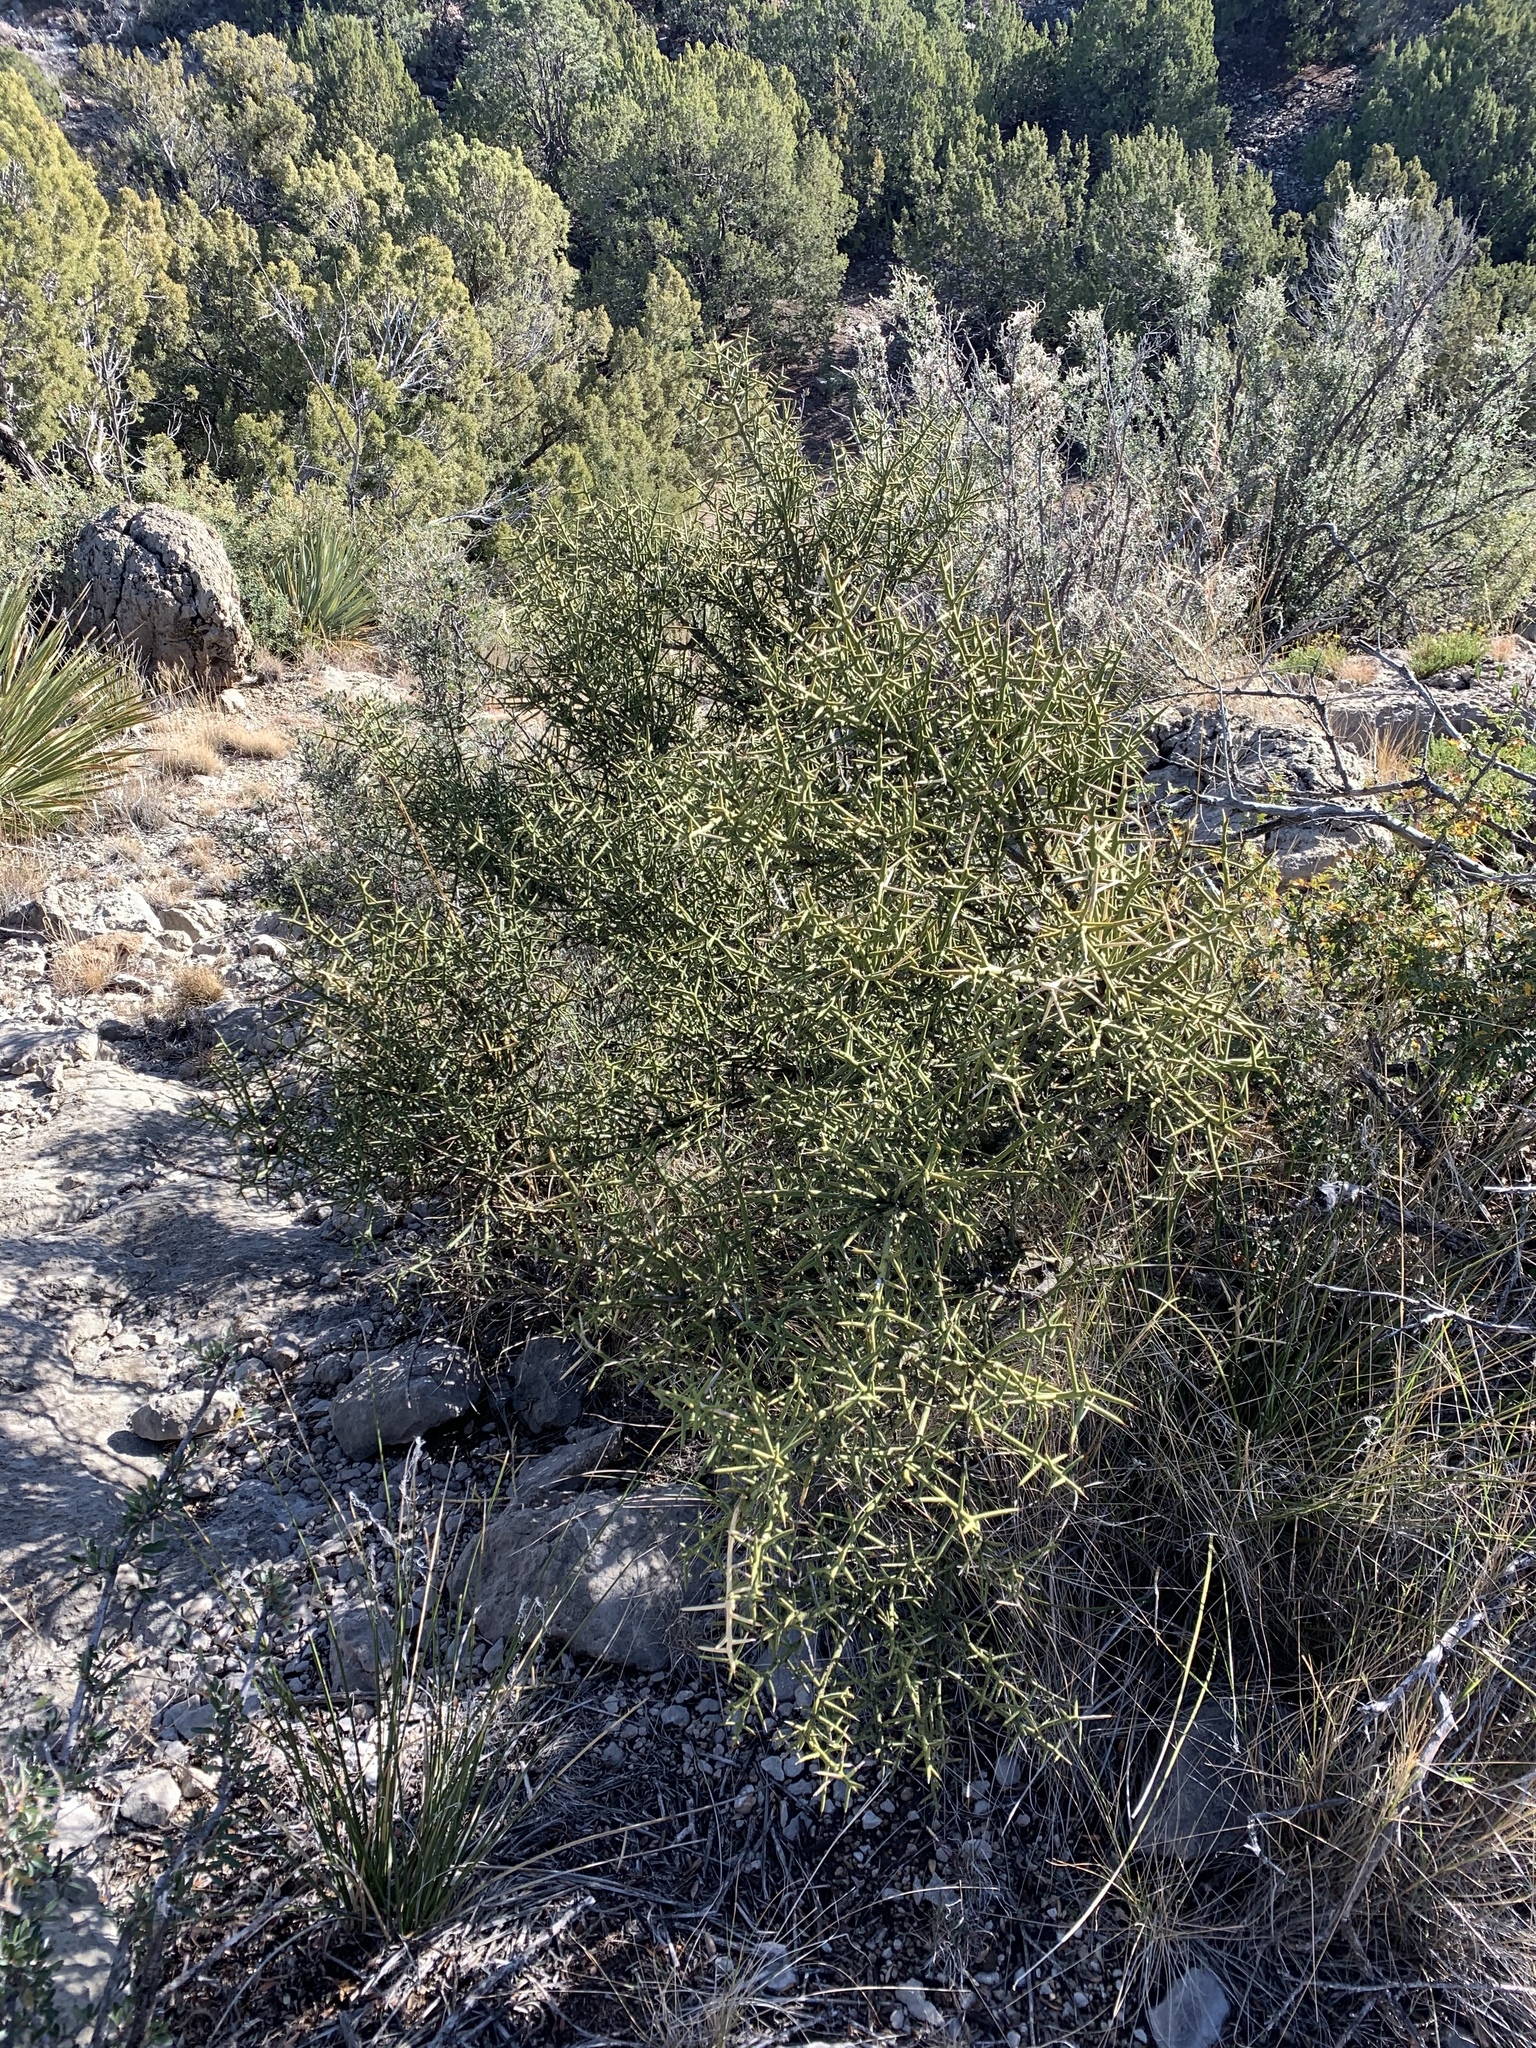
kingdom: Plantae
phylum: Tracheophyta
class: Magnoliopsida
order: Brassicales
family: Koeberliniaceae
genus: Koeberlinia
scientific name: Koeberlinia spinosa
